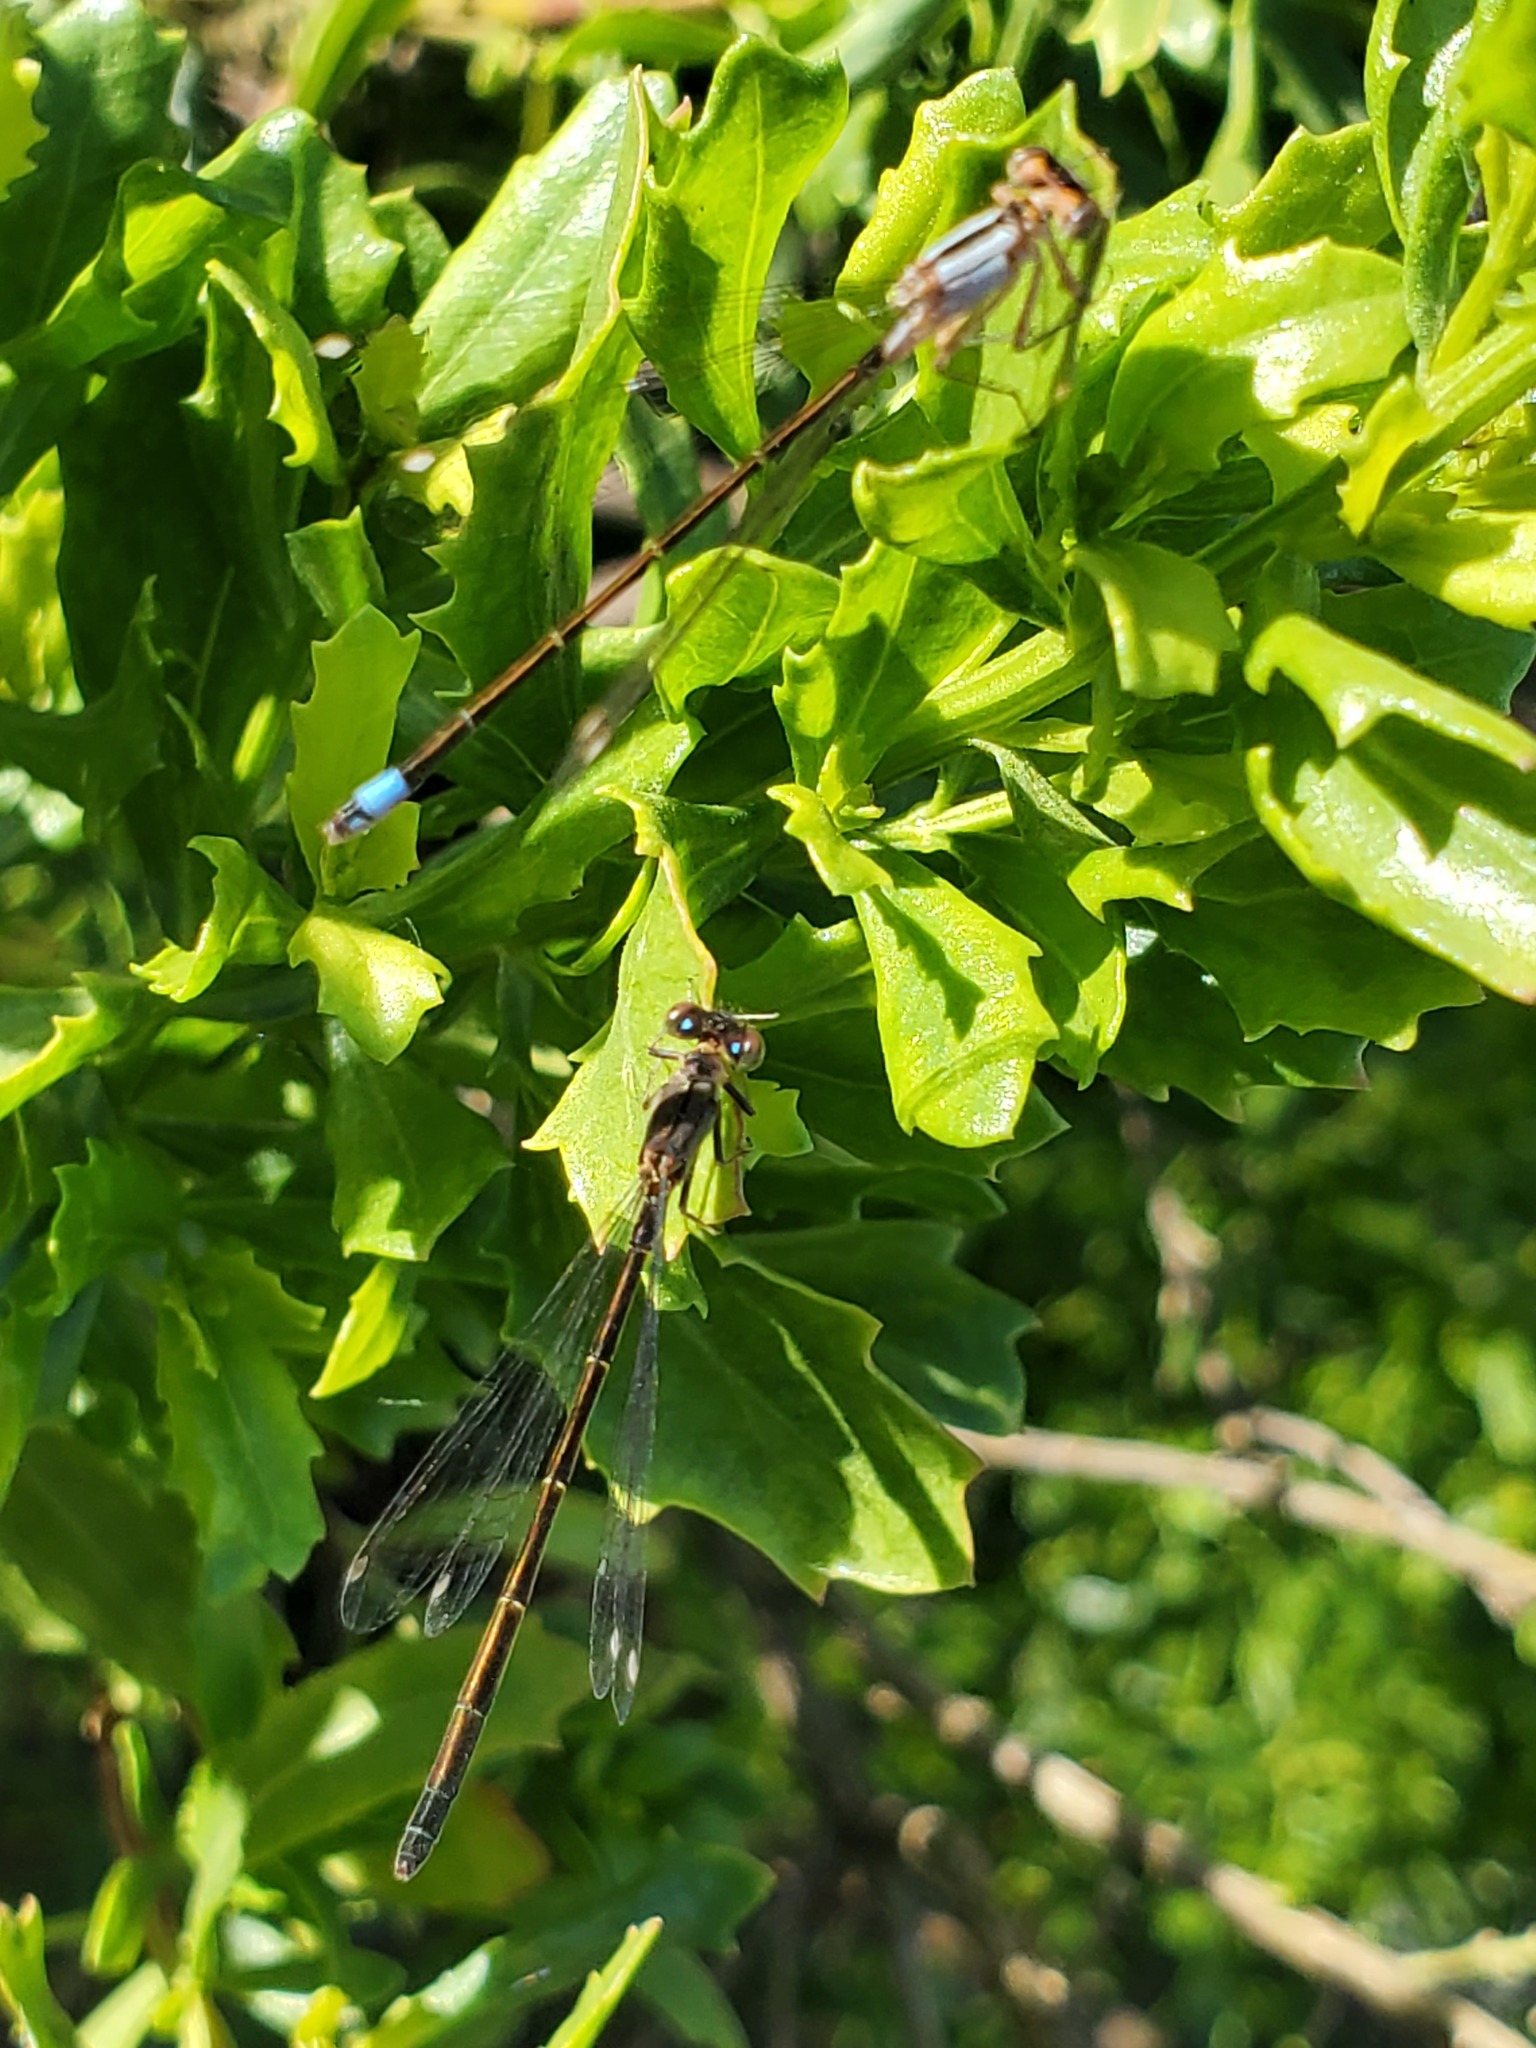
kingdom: Animalia
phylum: Arthropoda
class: Insecta
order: Odonata
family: Coenagrionidae
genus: Ischnura
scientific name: Ischnura cervula
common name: Pacific forktail
